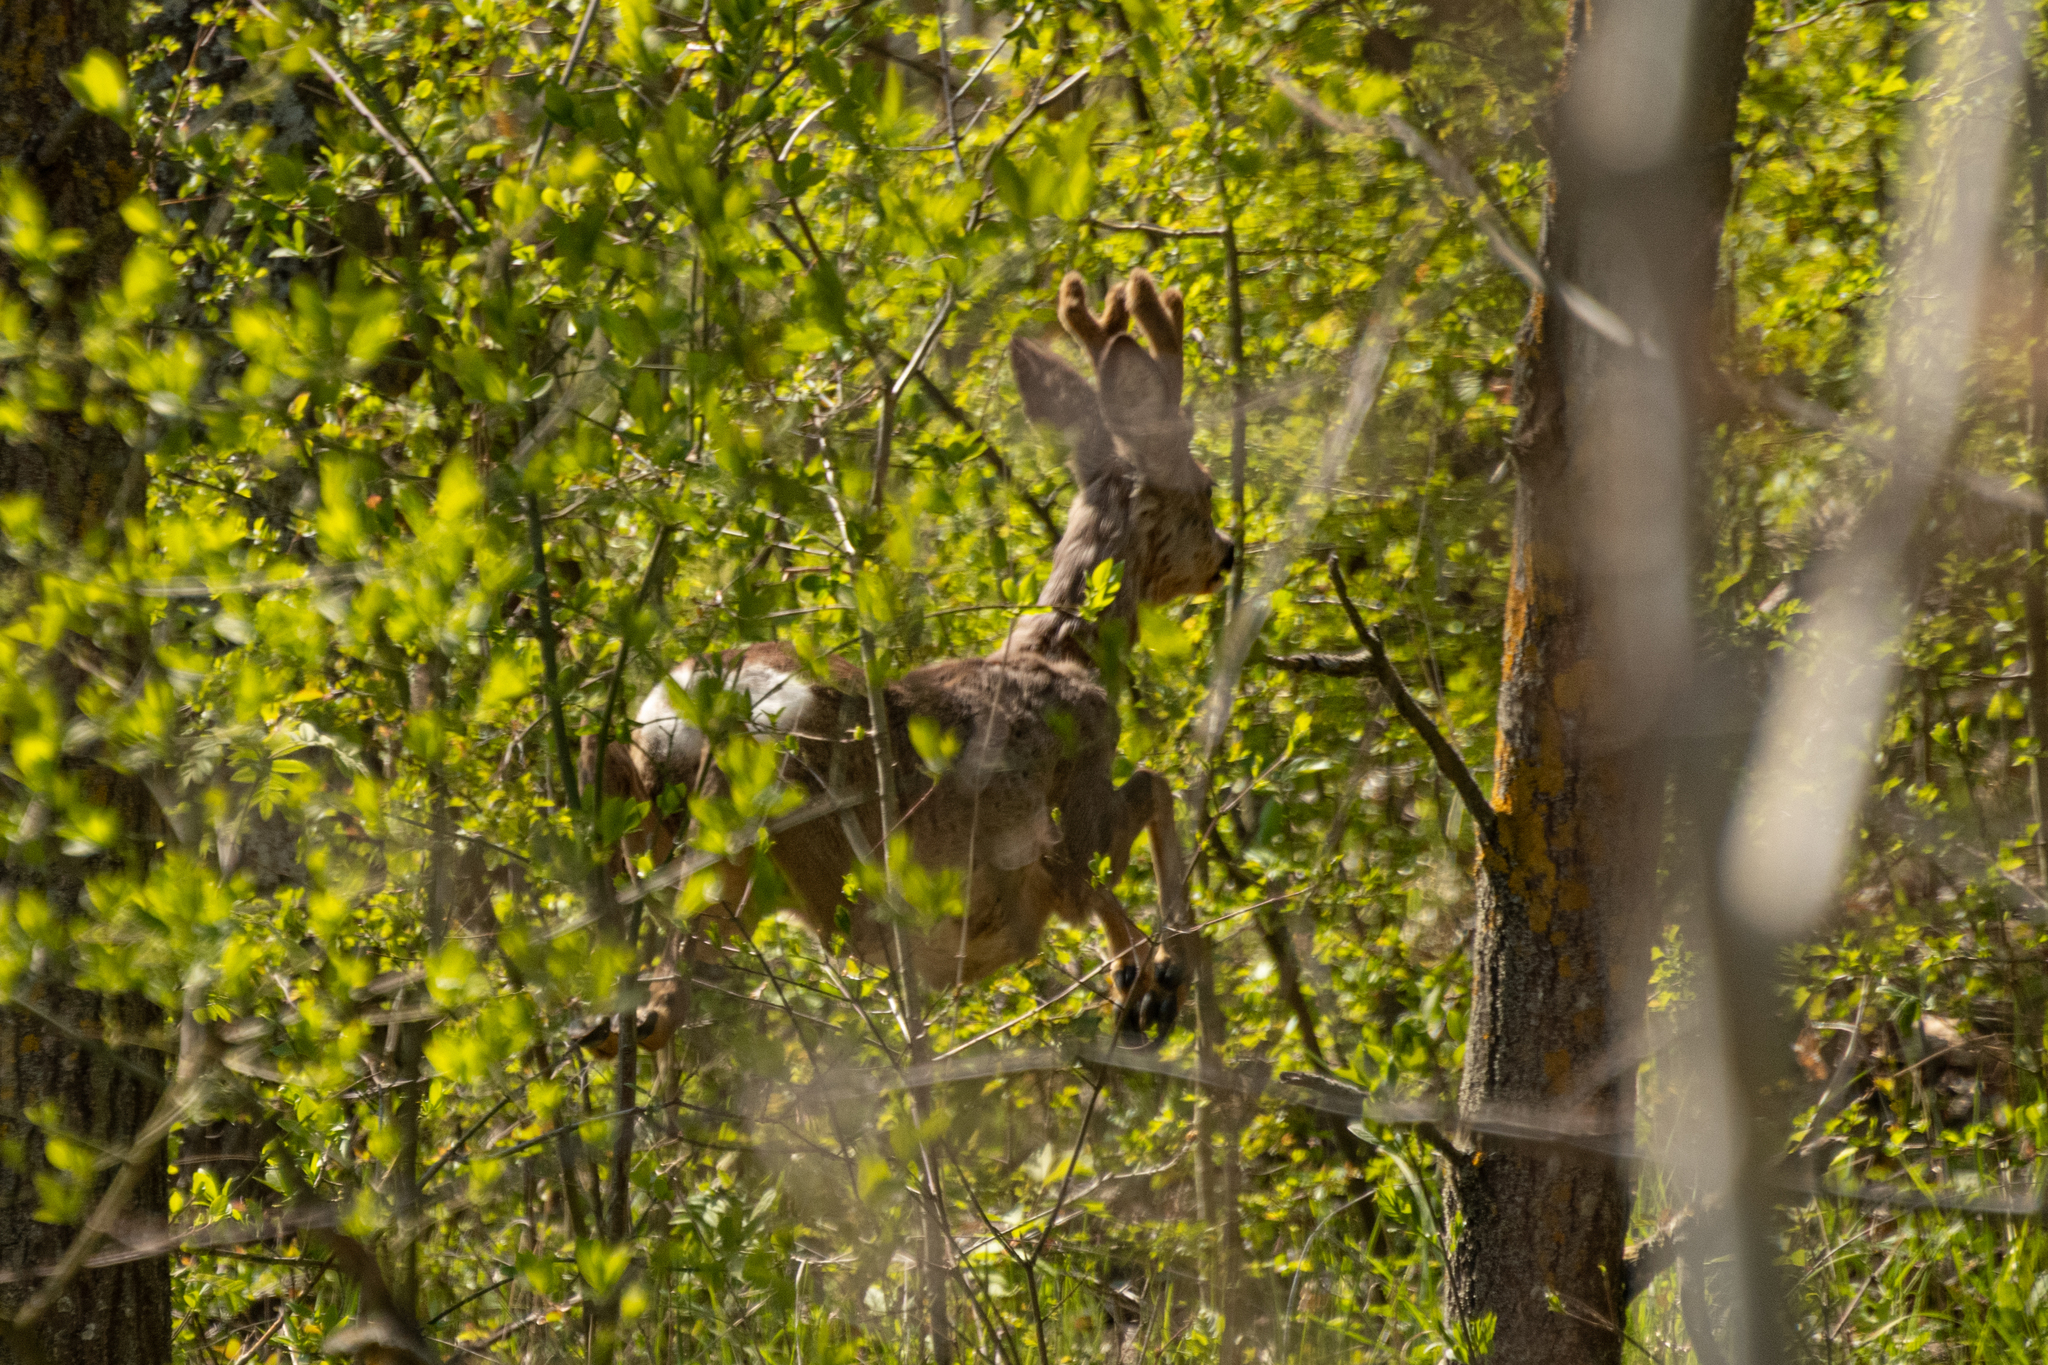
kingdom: Animalia
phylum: Chordata
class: Mammalia
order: Artiodactyla
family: Cervidae
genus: Capreolus
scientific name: Capreolus capreolus
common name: Western roe deer
